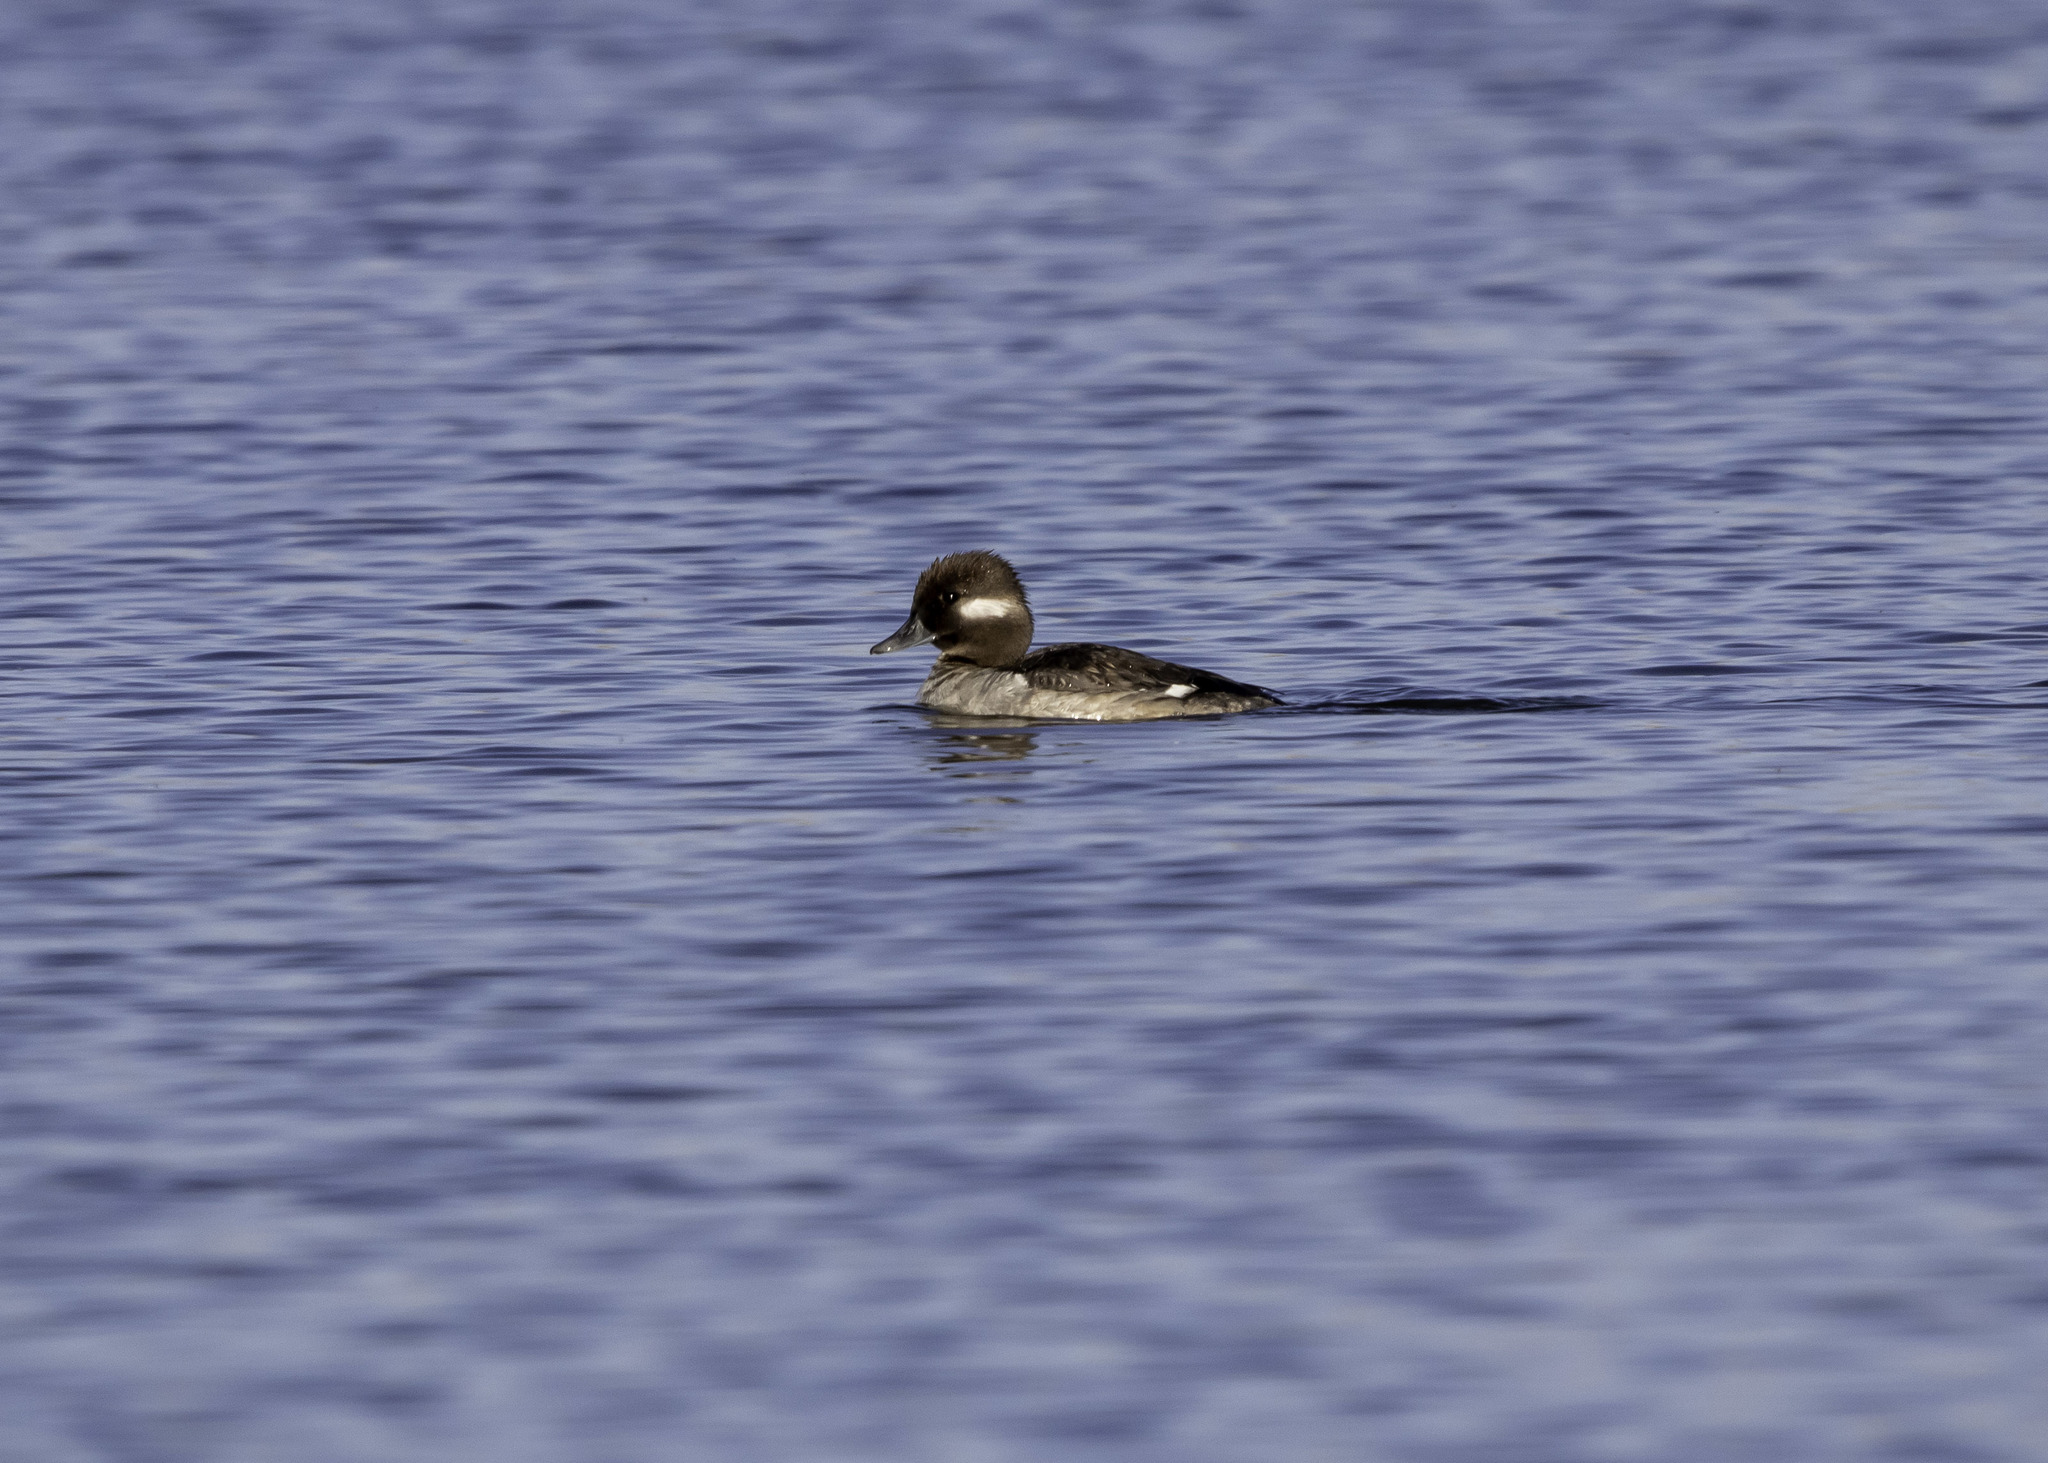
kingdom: Animalia
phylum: Chordata
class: Aves
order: Anseriformes
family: Anatidae
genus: Bucephala
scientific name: Bucephala albeola
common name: Bufflehead
